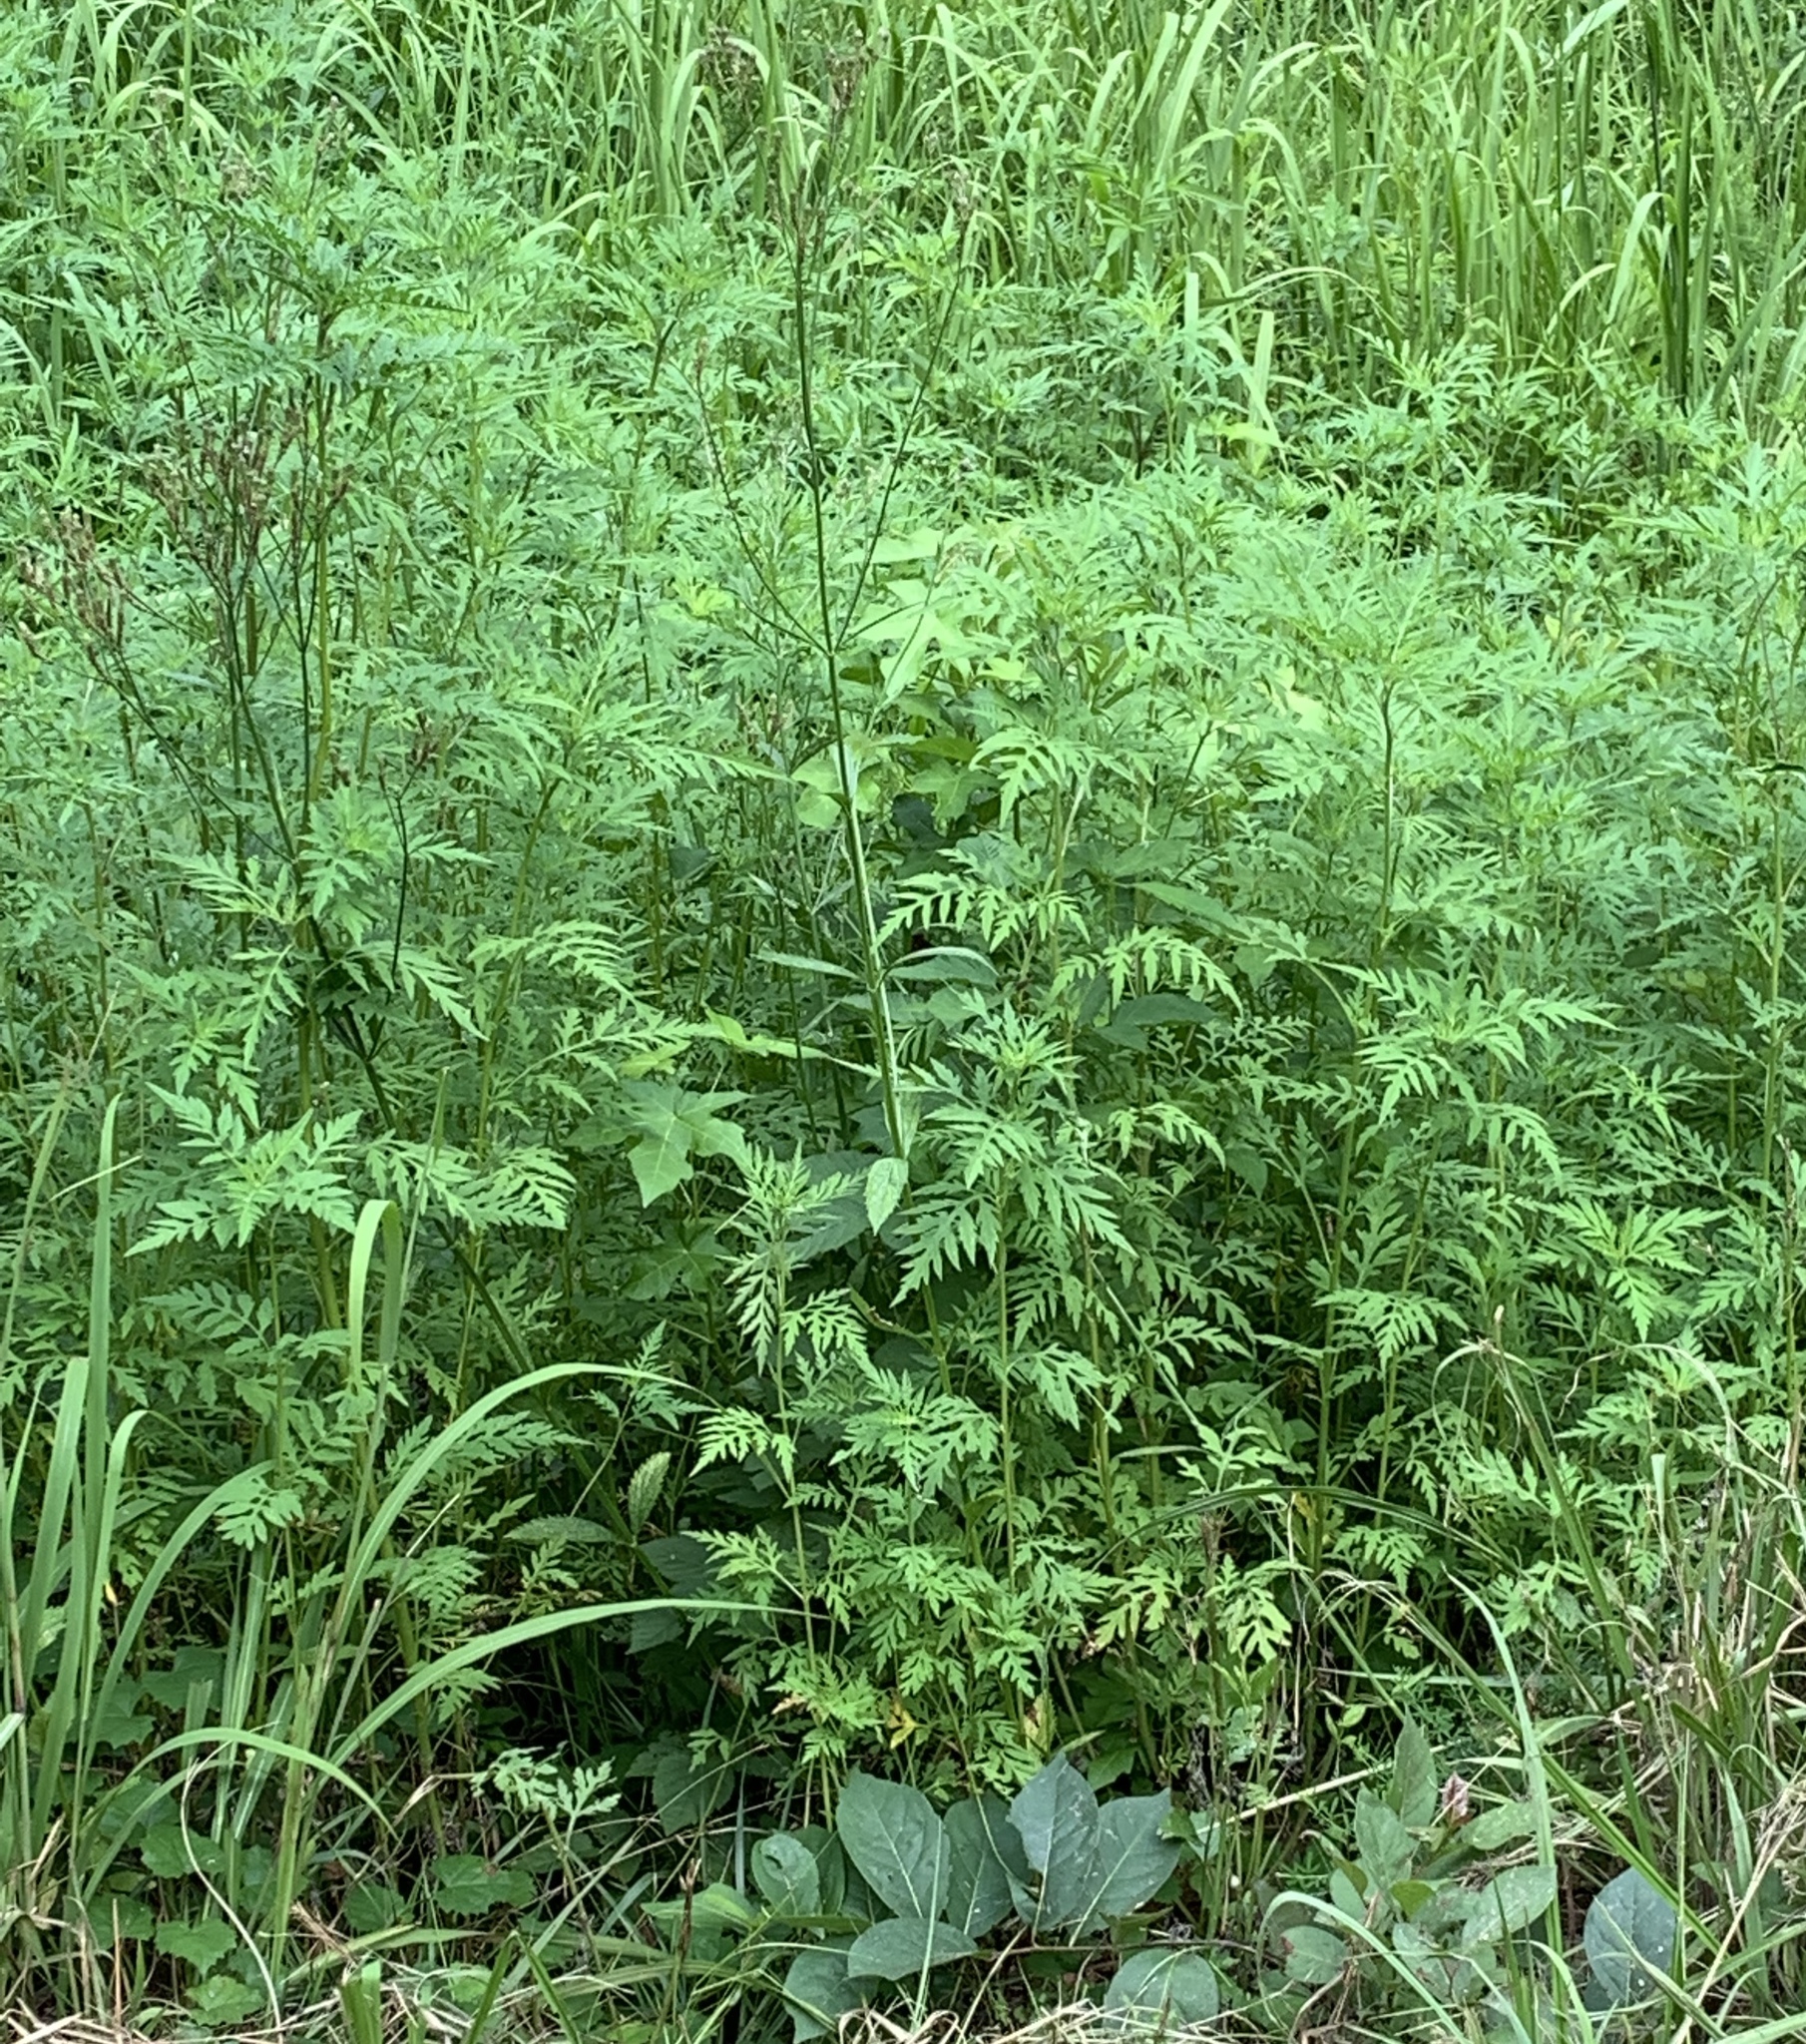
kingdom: Plantae
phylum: Tracheophyta
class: Magnoliopsida
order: Asterales
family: Asteraceae
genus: Ambrosia
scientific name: Ambrosia artemisiifolia
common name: Annual ragweed
